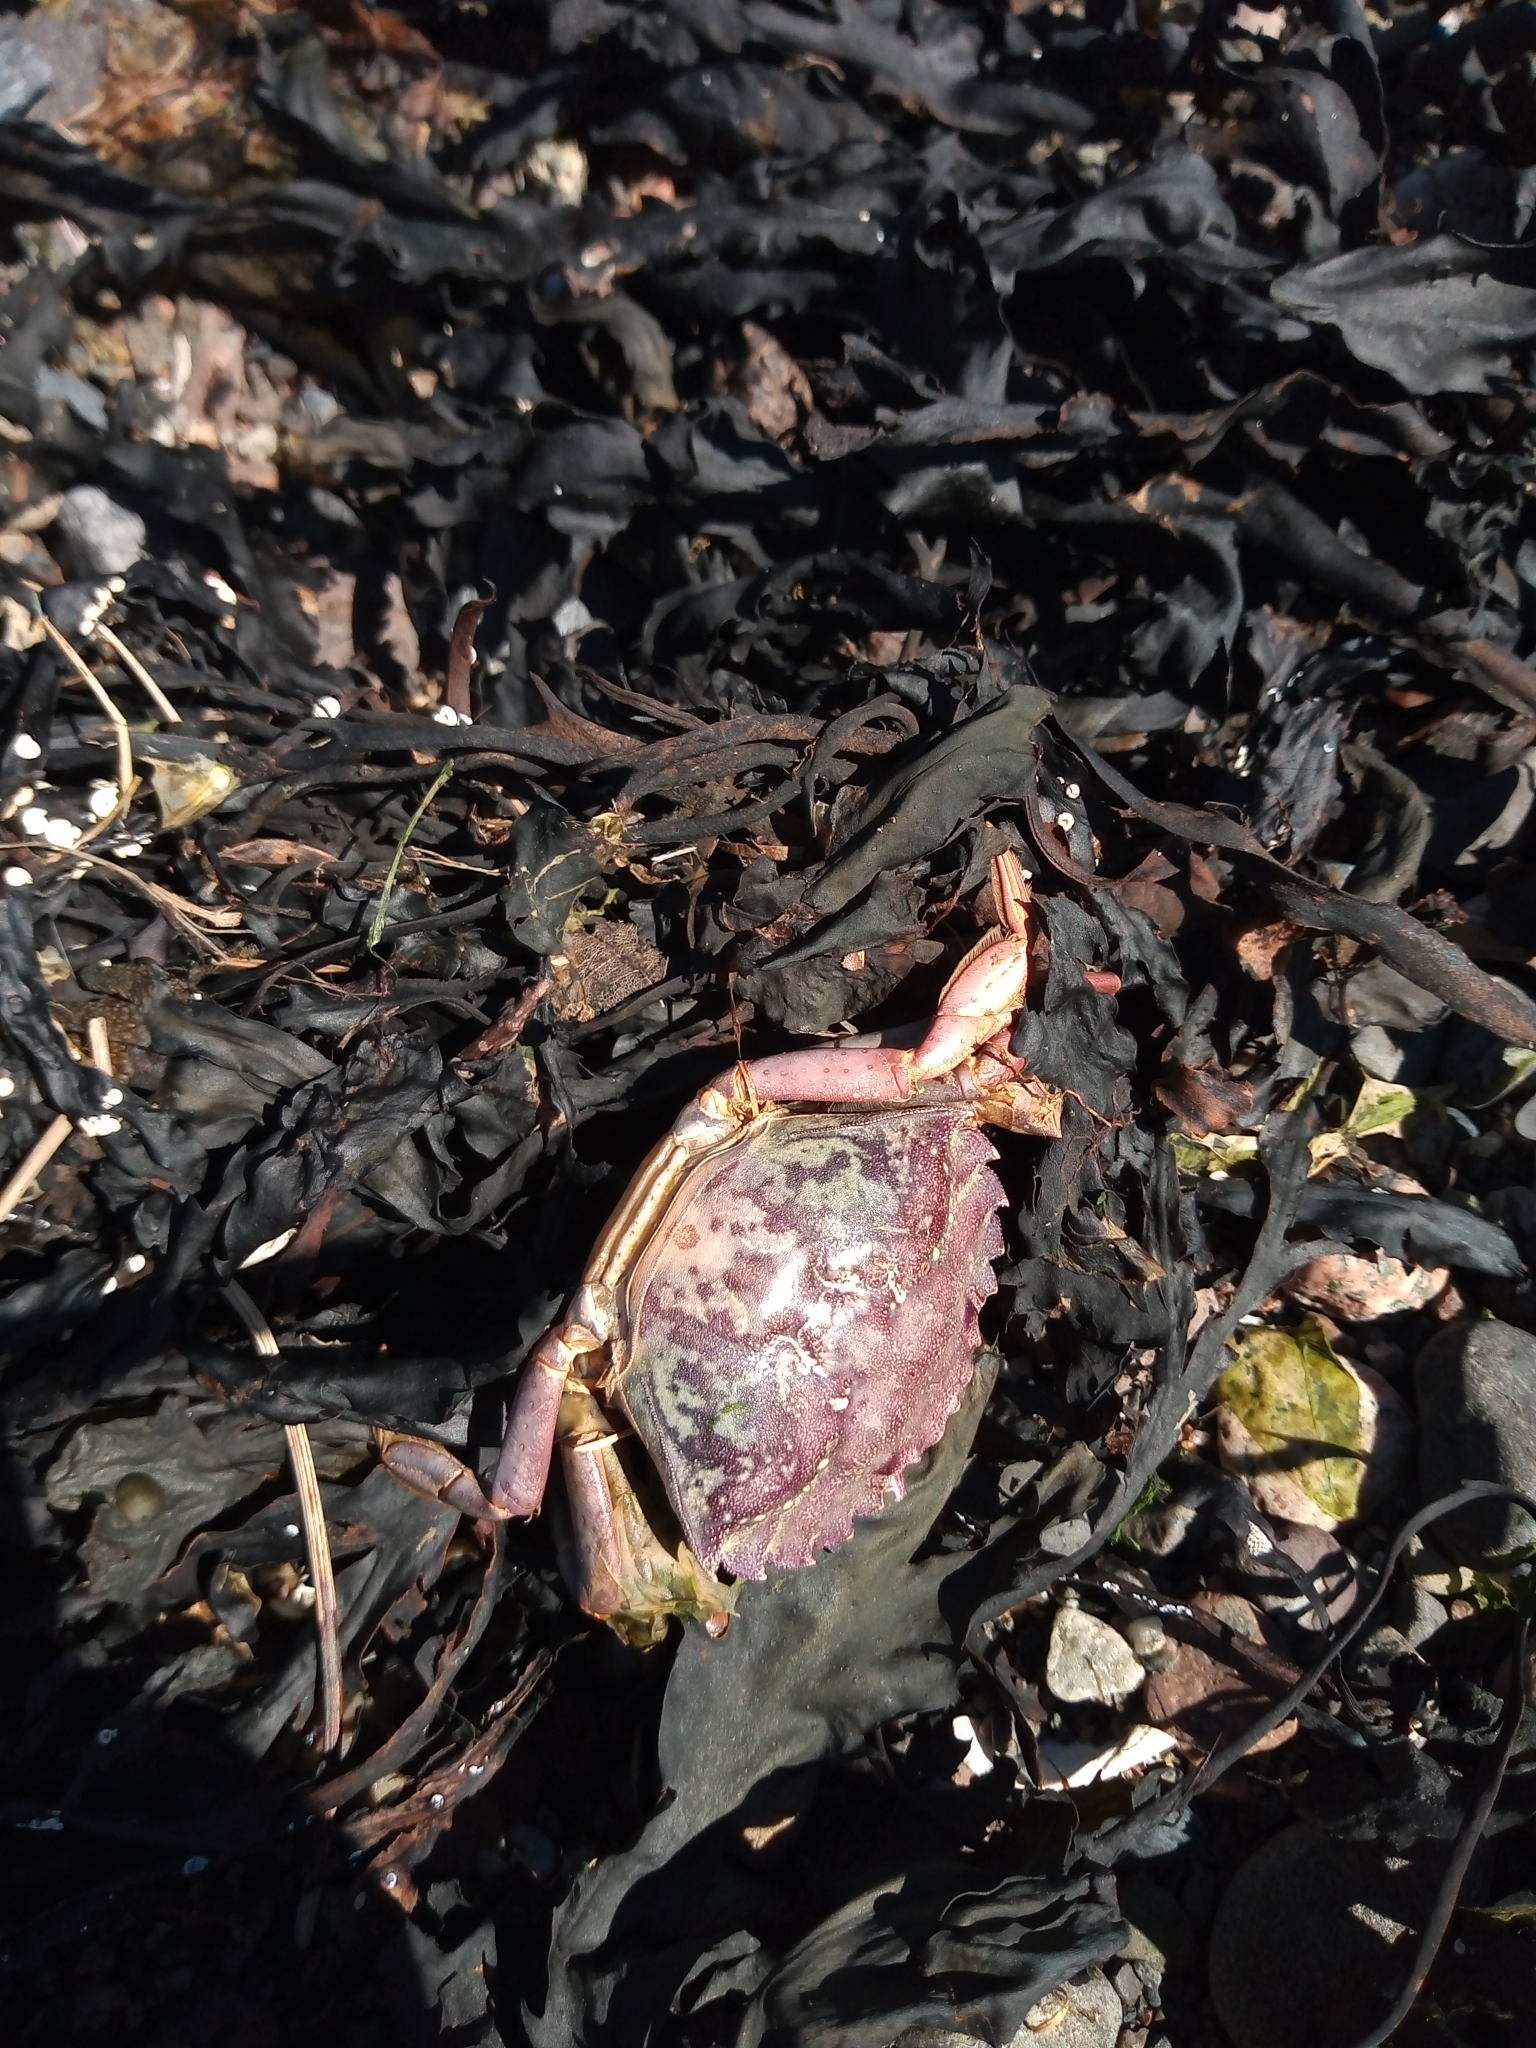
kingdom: Animalia
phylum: Arthropoda
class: Malacostraca
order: Decapoda
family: Carcinidae
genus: Carcinus
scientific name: Carcinus maenas
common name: European green crab
